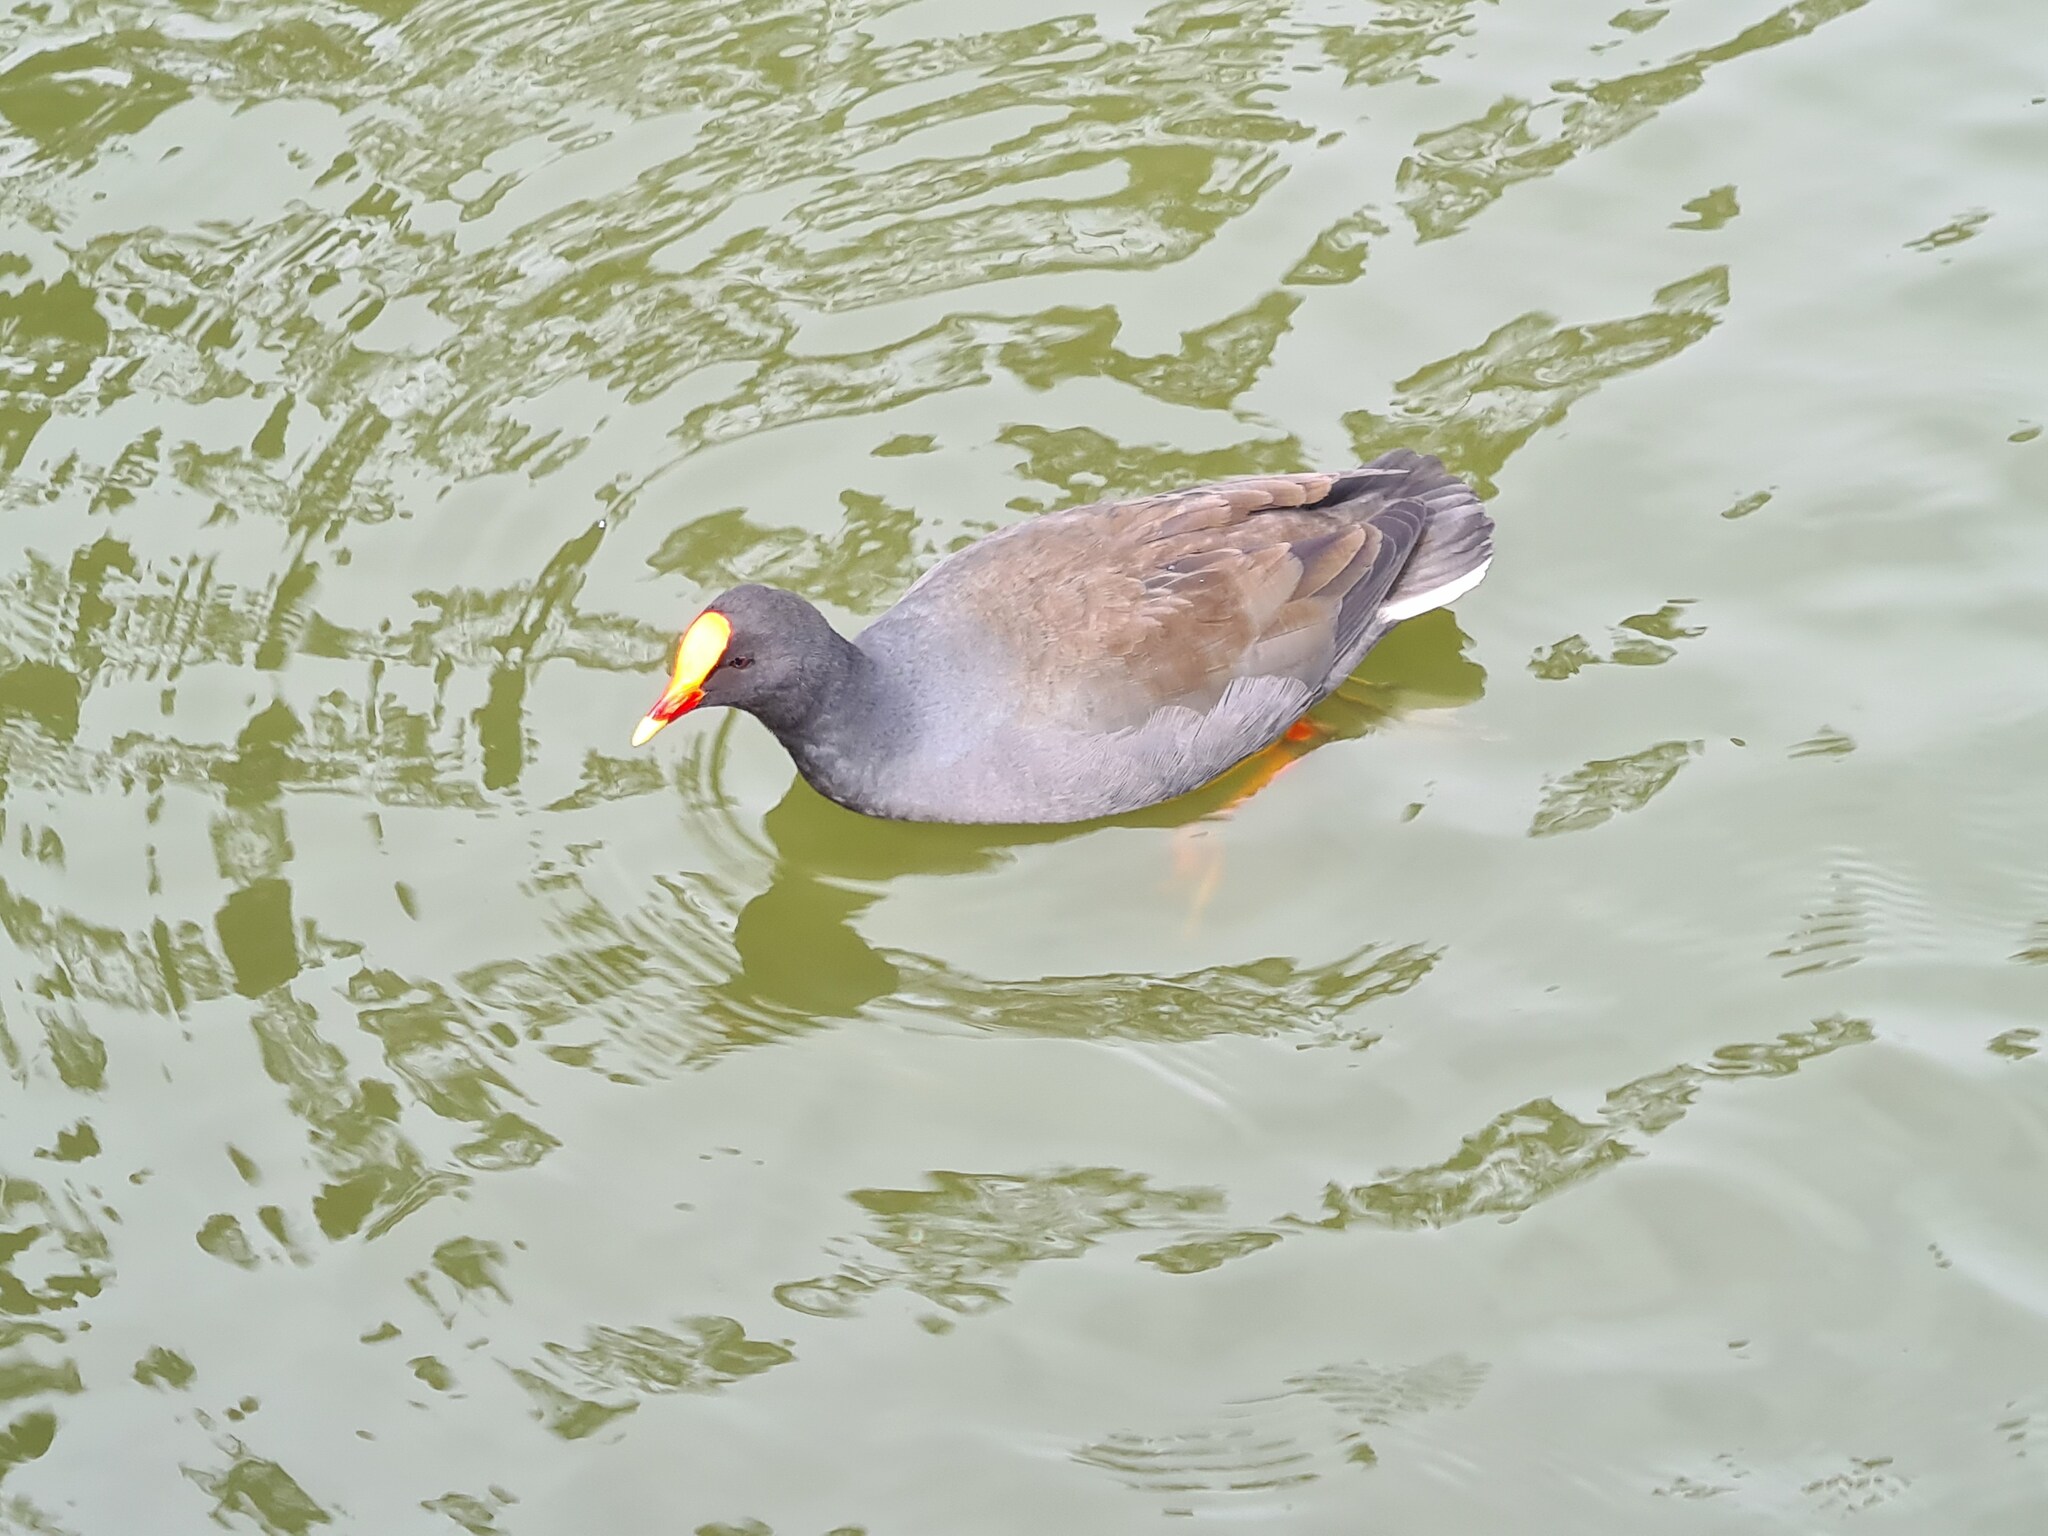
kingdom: Animalia
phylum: Chordata
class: Aves
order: Gruiformes
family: Rallidae
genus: Gallinula
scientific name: Gallinula tenebrosa
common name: Dusky moorhen
